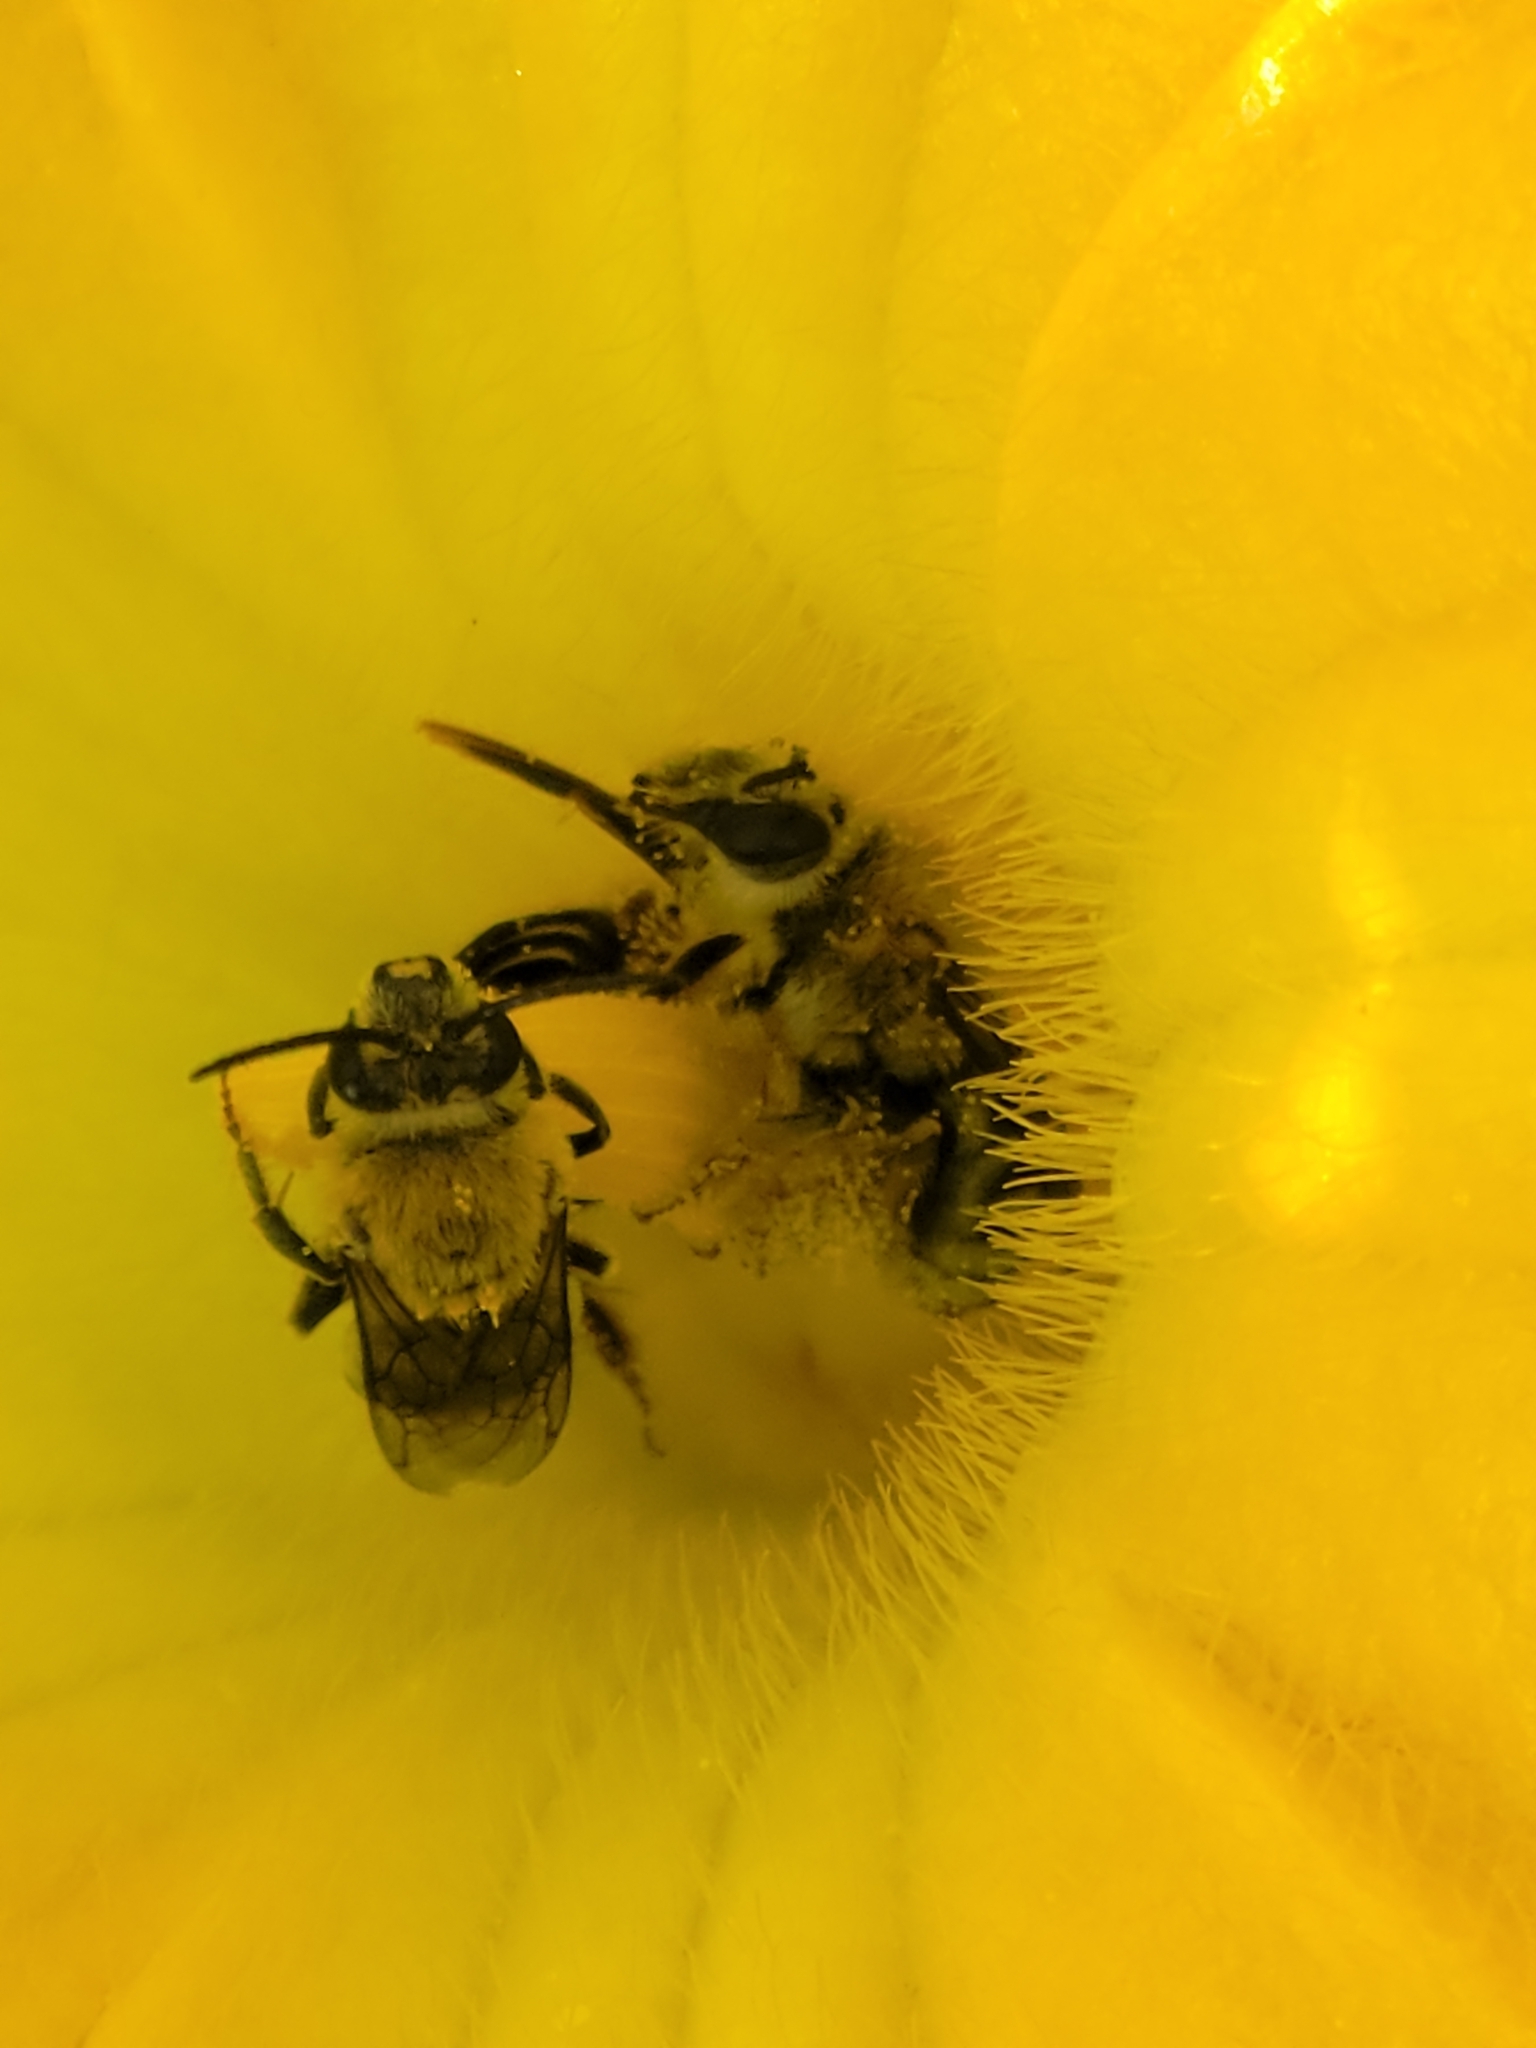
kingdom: Animalia
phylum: Arthropoda
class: Insecta
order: Hymenoptera
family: Apidae
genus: Peponapis
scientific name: Peponapis pruinosa
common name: Pruinose squash bee
